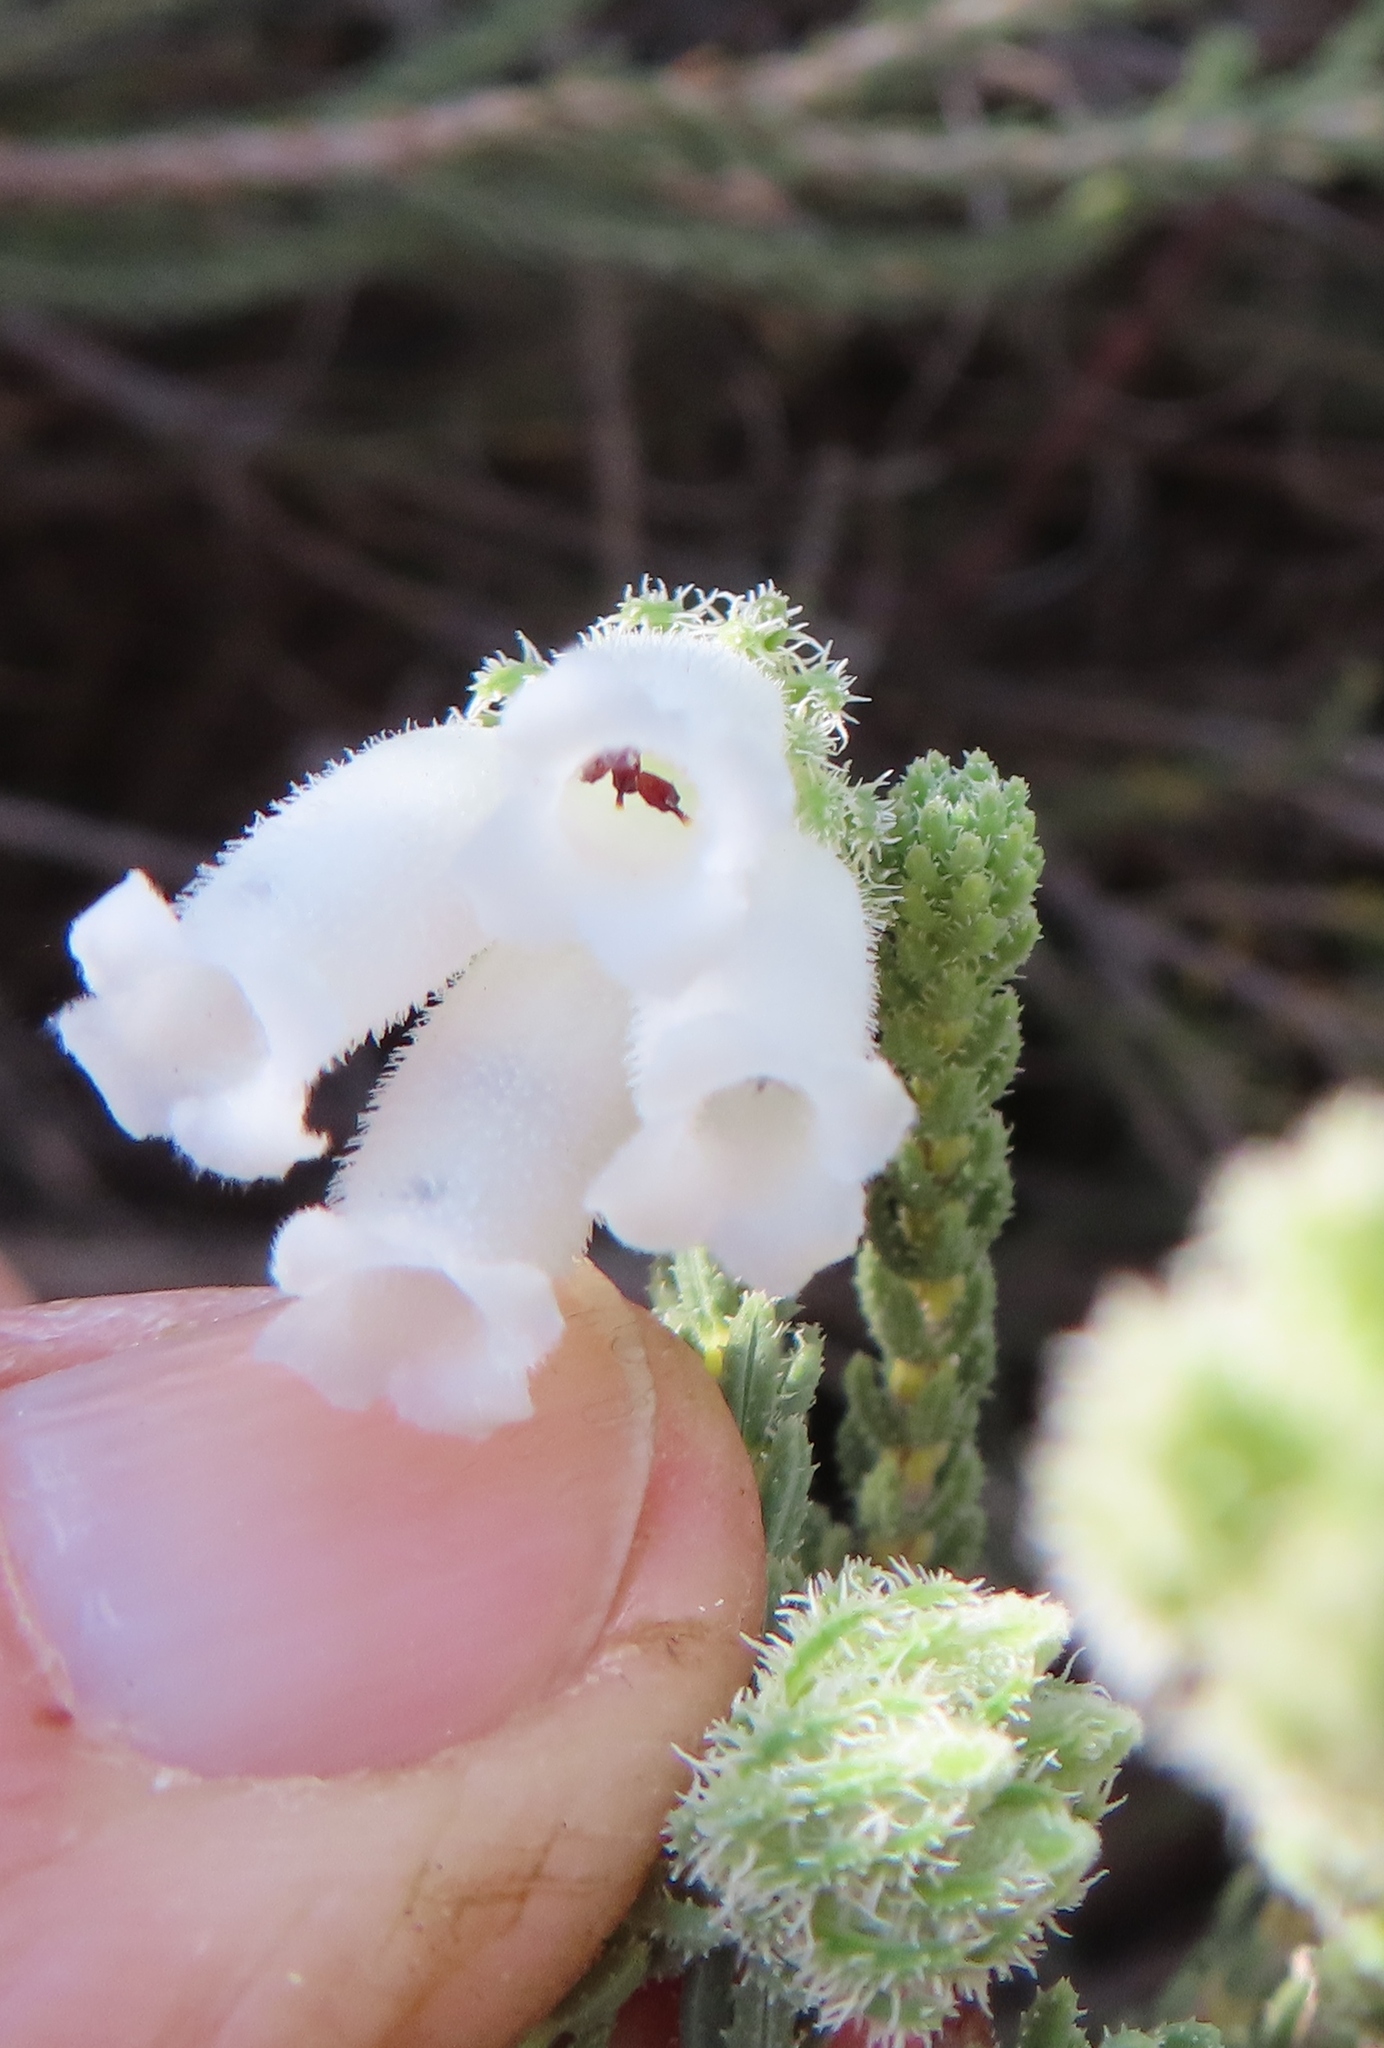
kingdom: Plantae
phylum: Tracheophyta
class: Magnoliopsida
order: Ericales
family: Ericaceae
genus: Erica
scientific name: Erica strigilifolia
